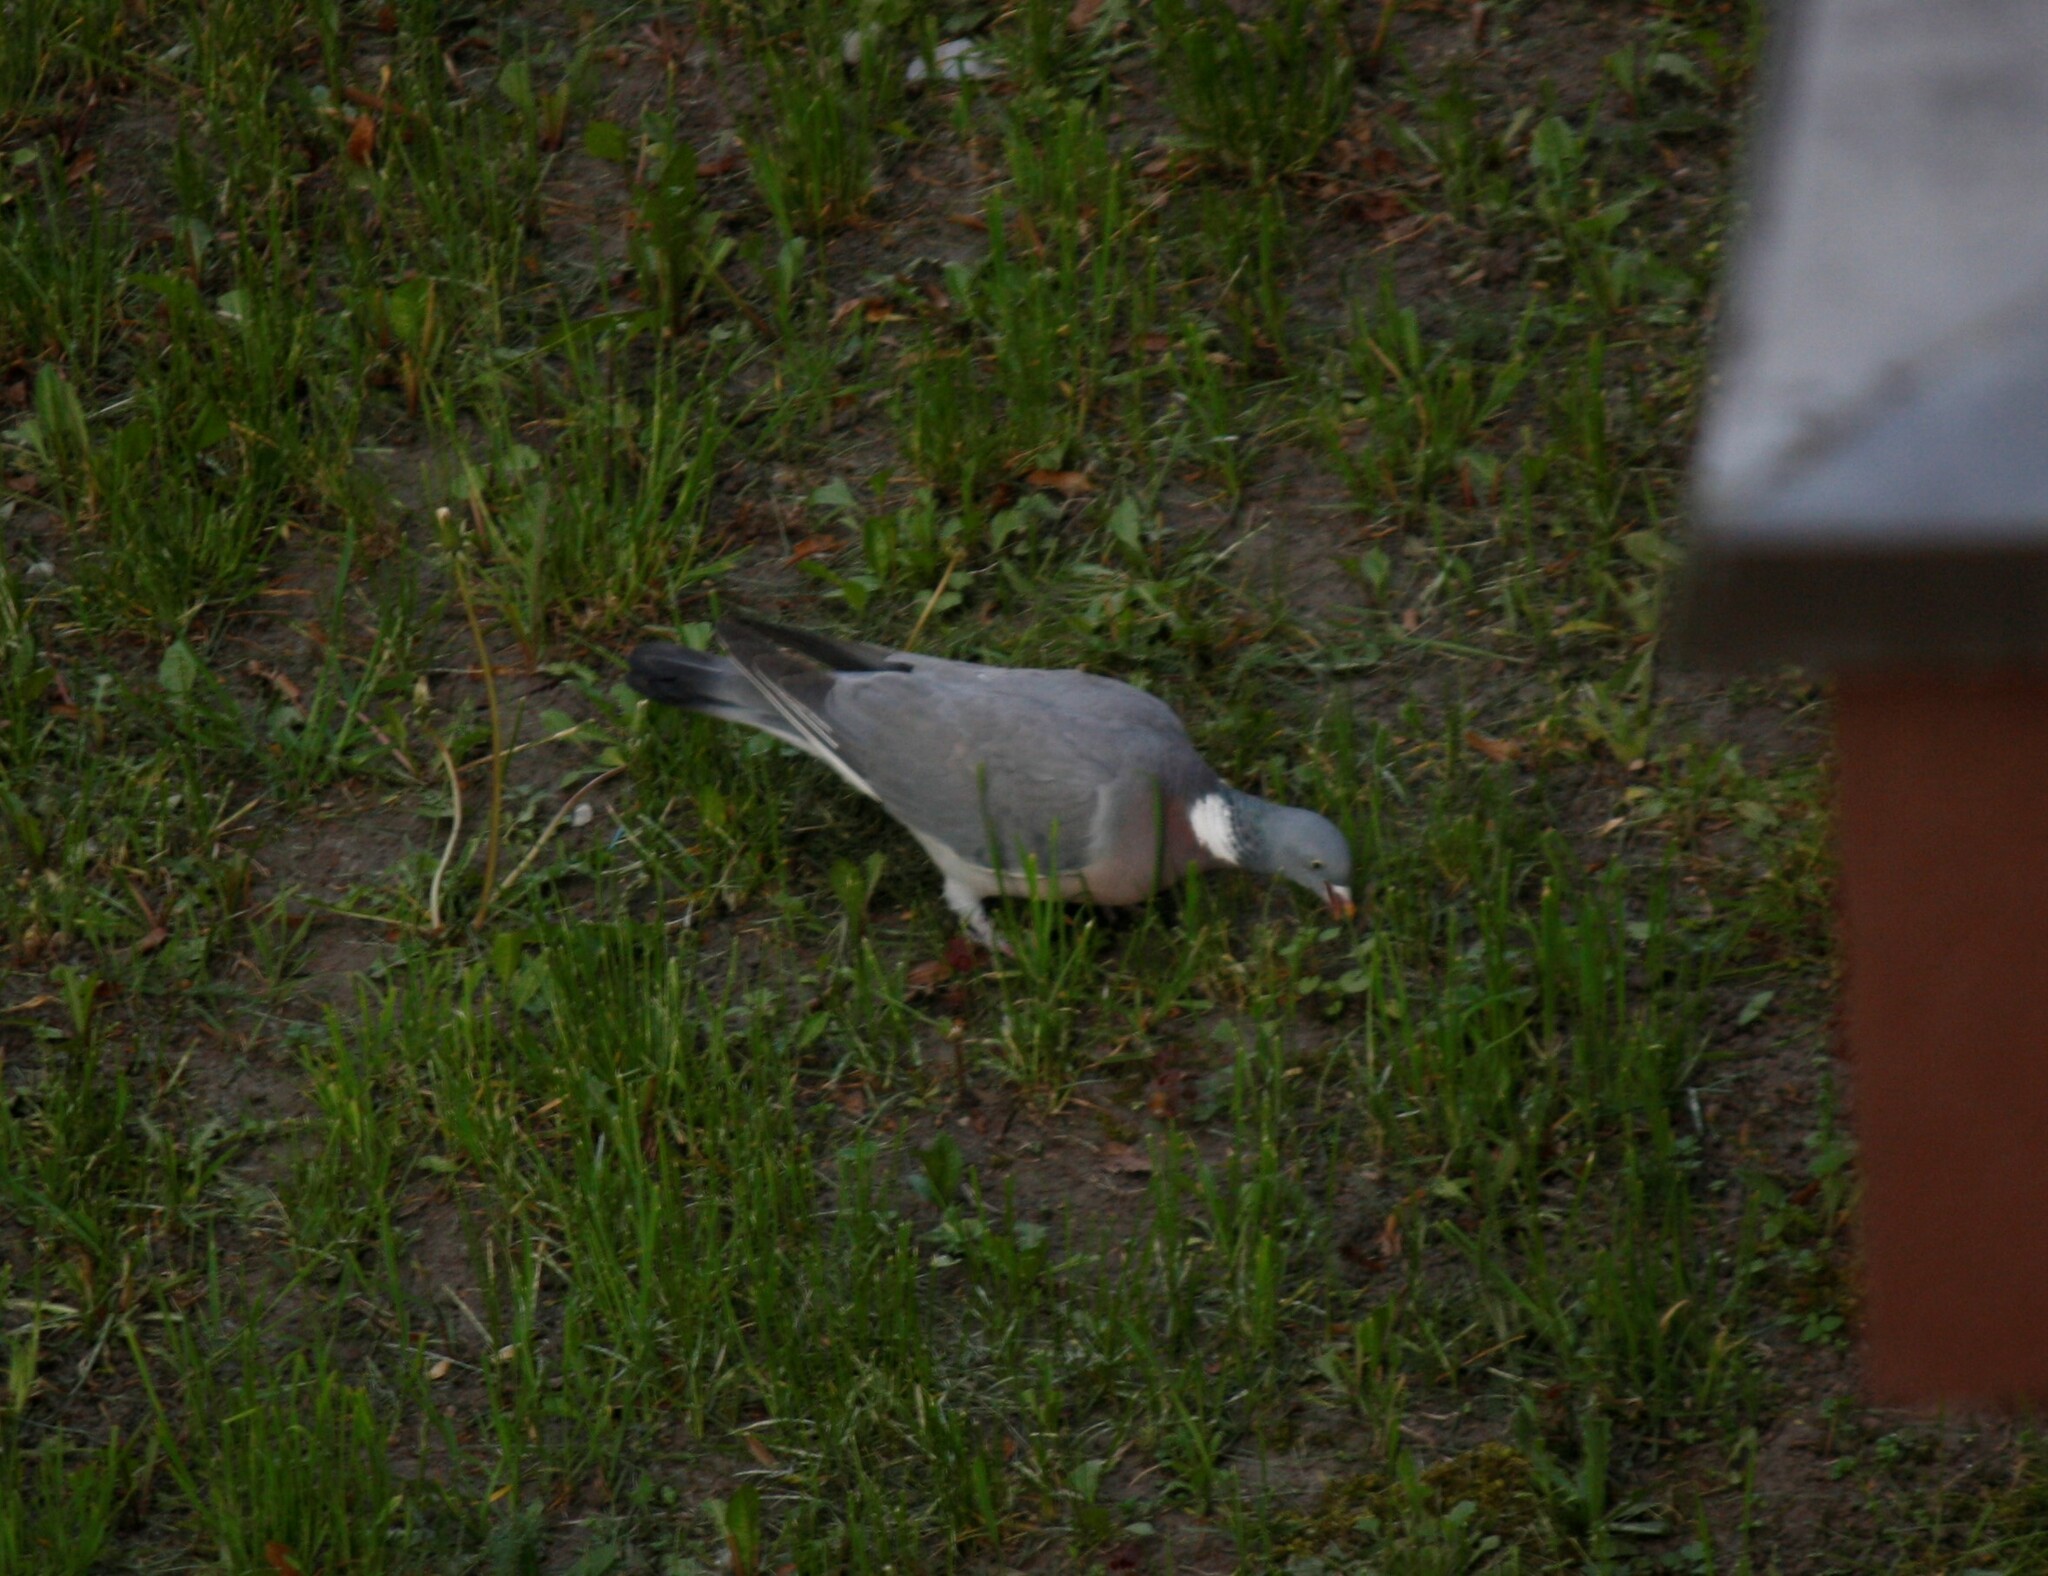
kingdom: Animalia
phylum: Chordata
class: Aves
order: Columbiformes
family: Columbidae
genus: Columba
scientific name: Columba palumbus
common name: Common wood pigeon
